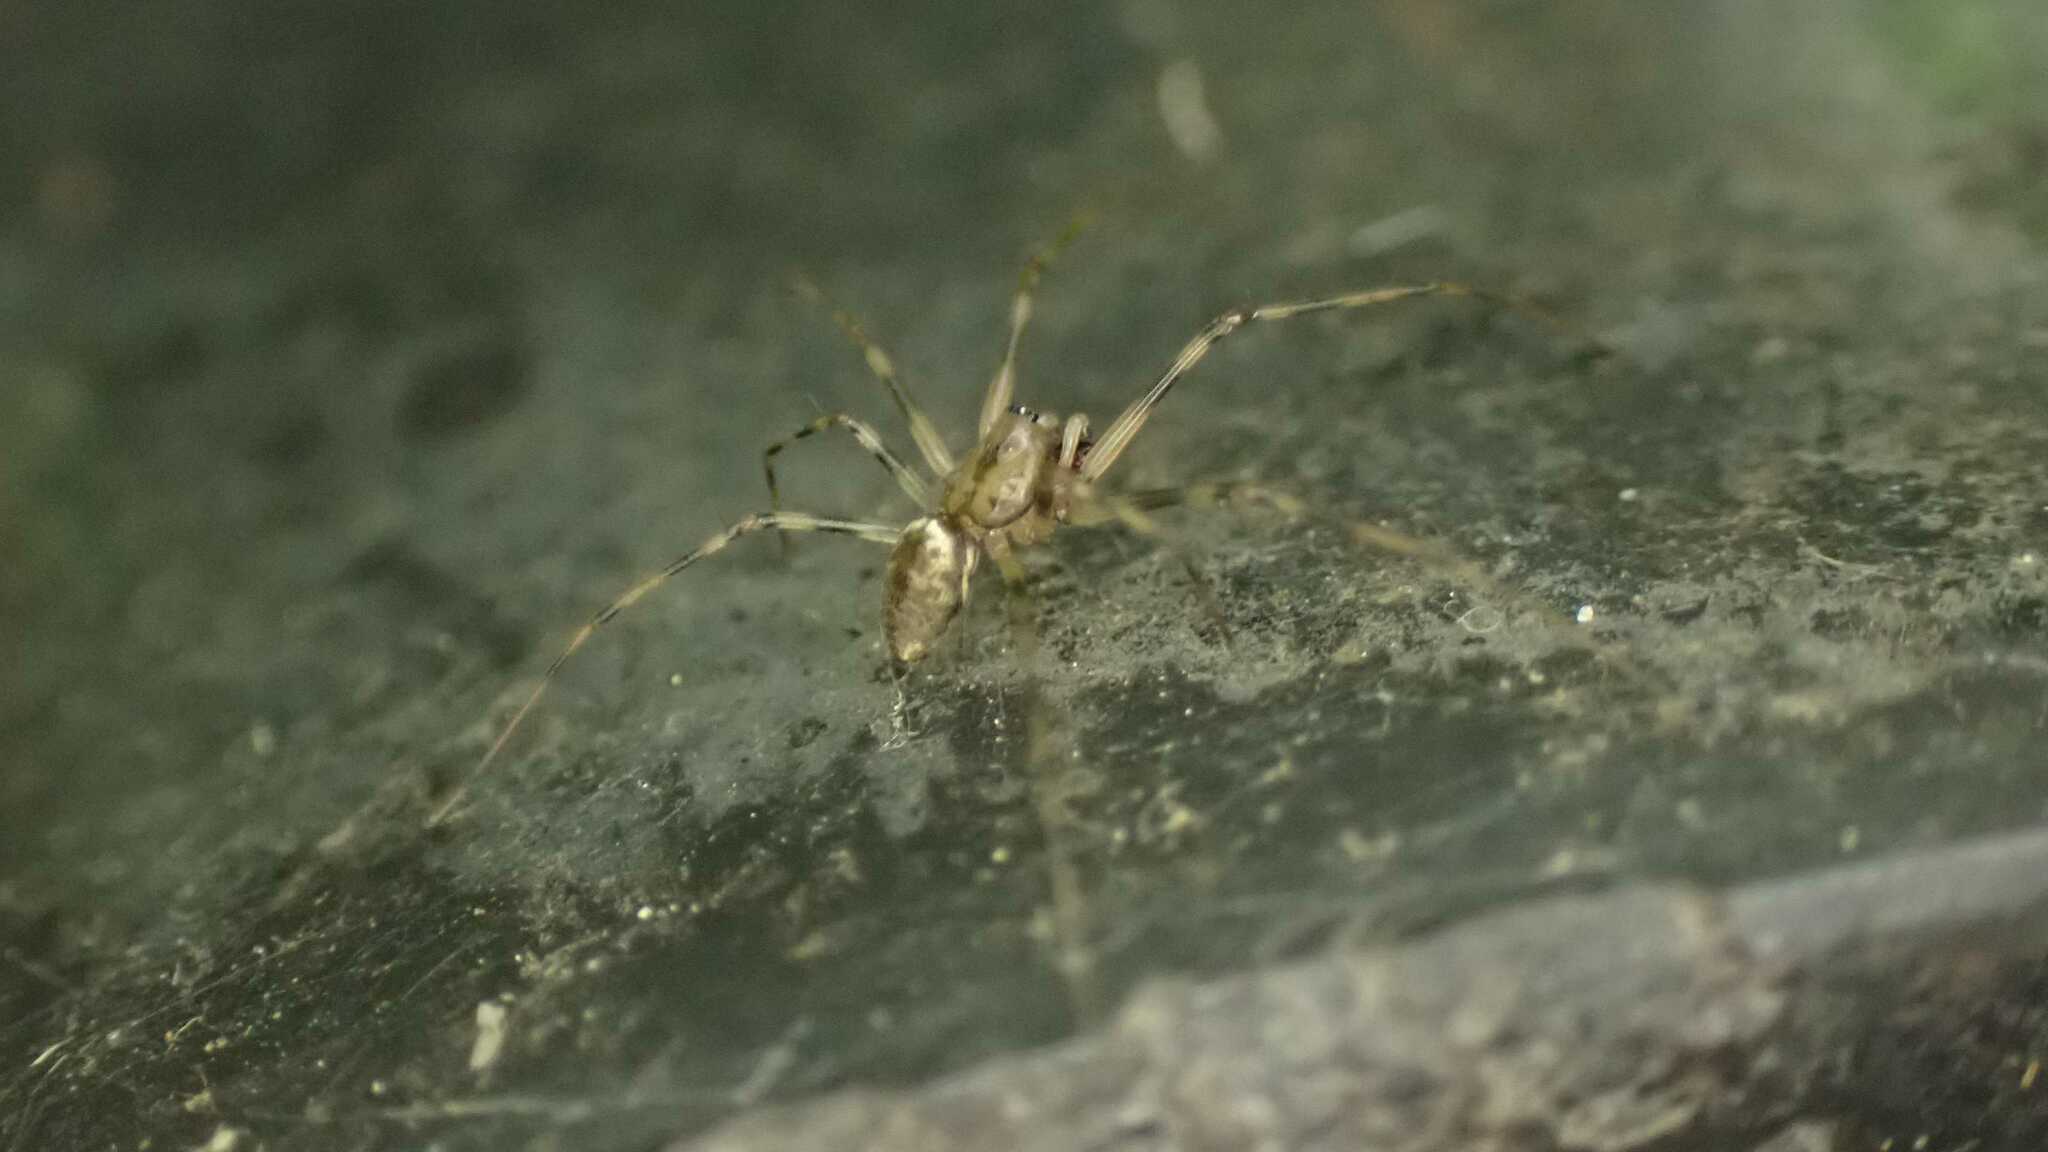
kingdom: Animalia
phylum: Arthropoda
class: Arachnida
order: Araneae
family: Linyphiidae
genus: Drapetisca
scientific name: Drapetisca socialis
